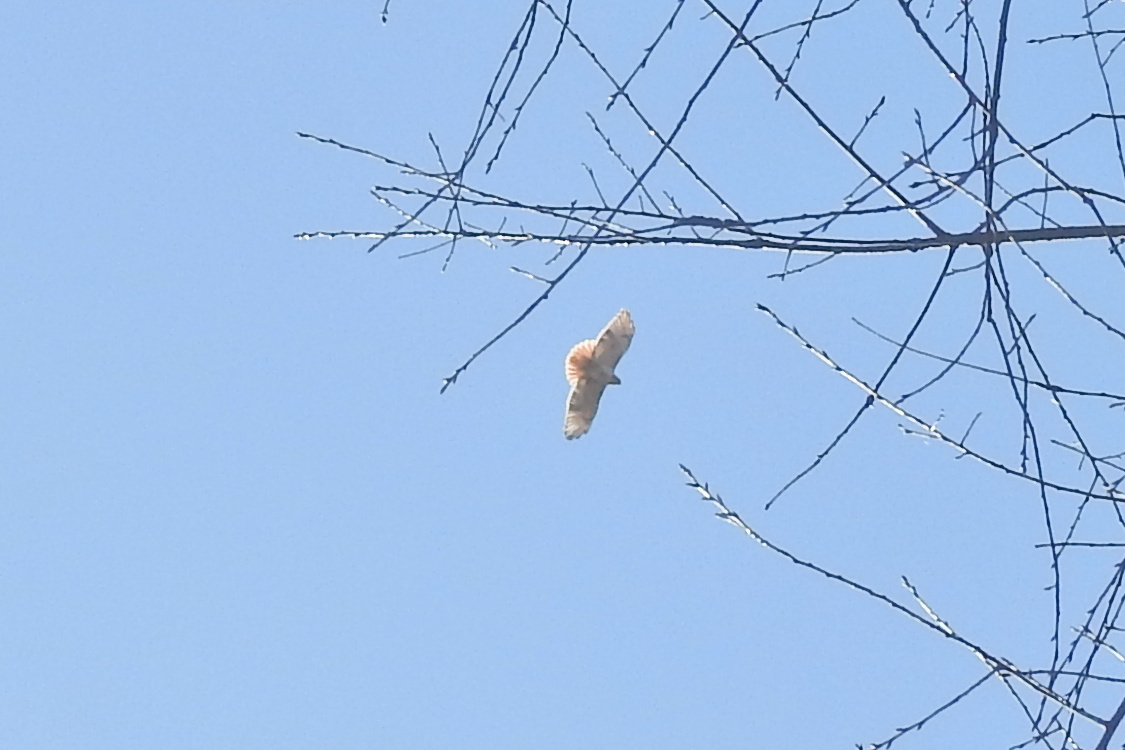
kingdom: Animalia
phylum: Chordata
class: Aves
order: Accipitriformes
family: Accipitridae
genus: Buteo
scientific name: Buteo jamaicensis
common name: Red-tailed hawk
